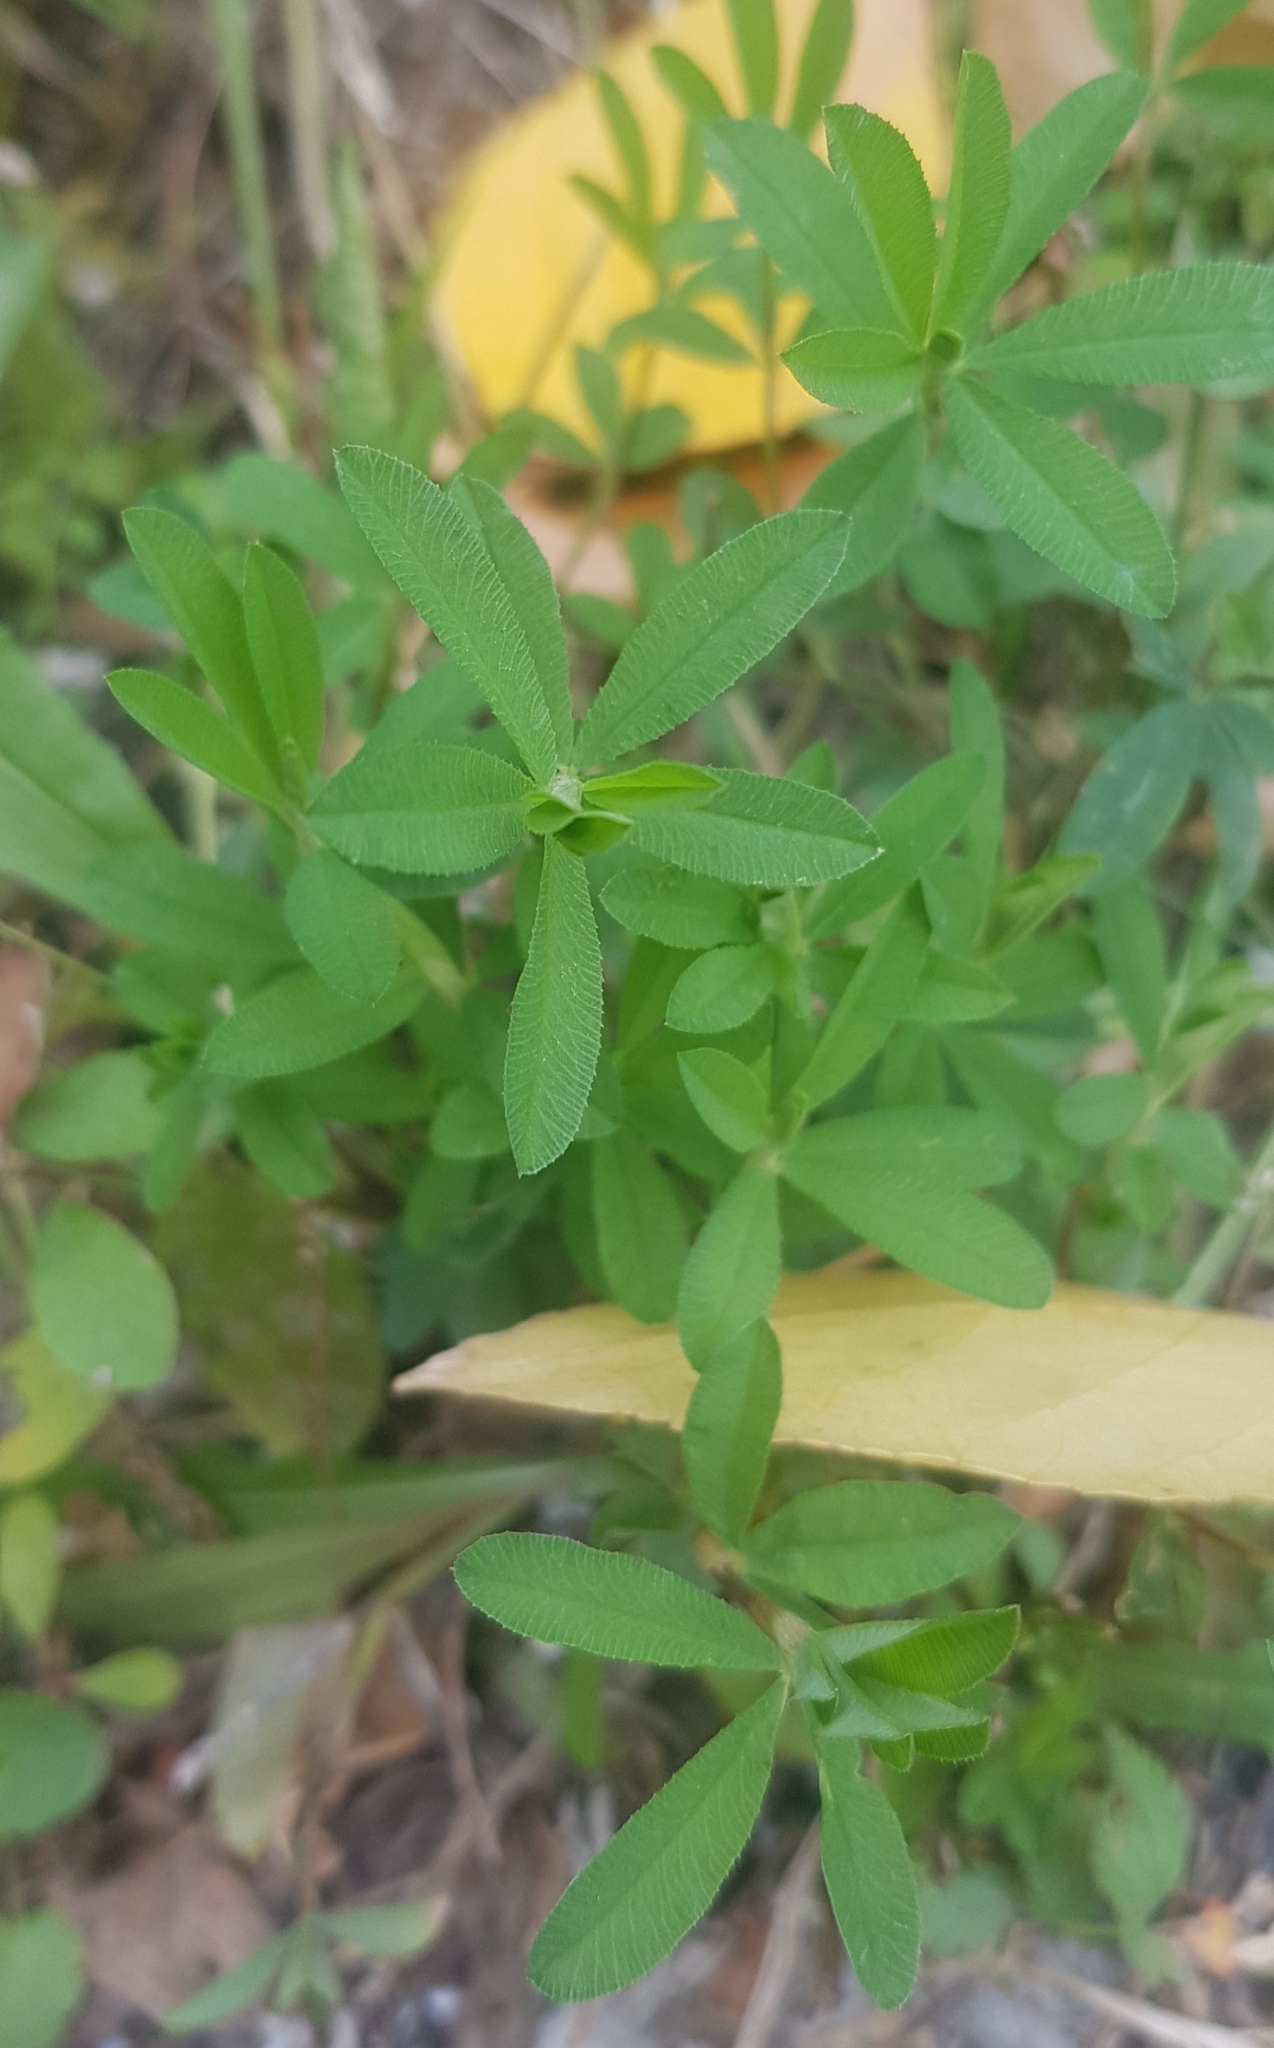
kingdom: Plantae
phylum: Tracheophyta
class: Magnoliopsida
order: Fabales
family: Fabaceae
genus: Trifolium
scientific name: Trifolium lupinaster
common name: Lupine clover
